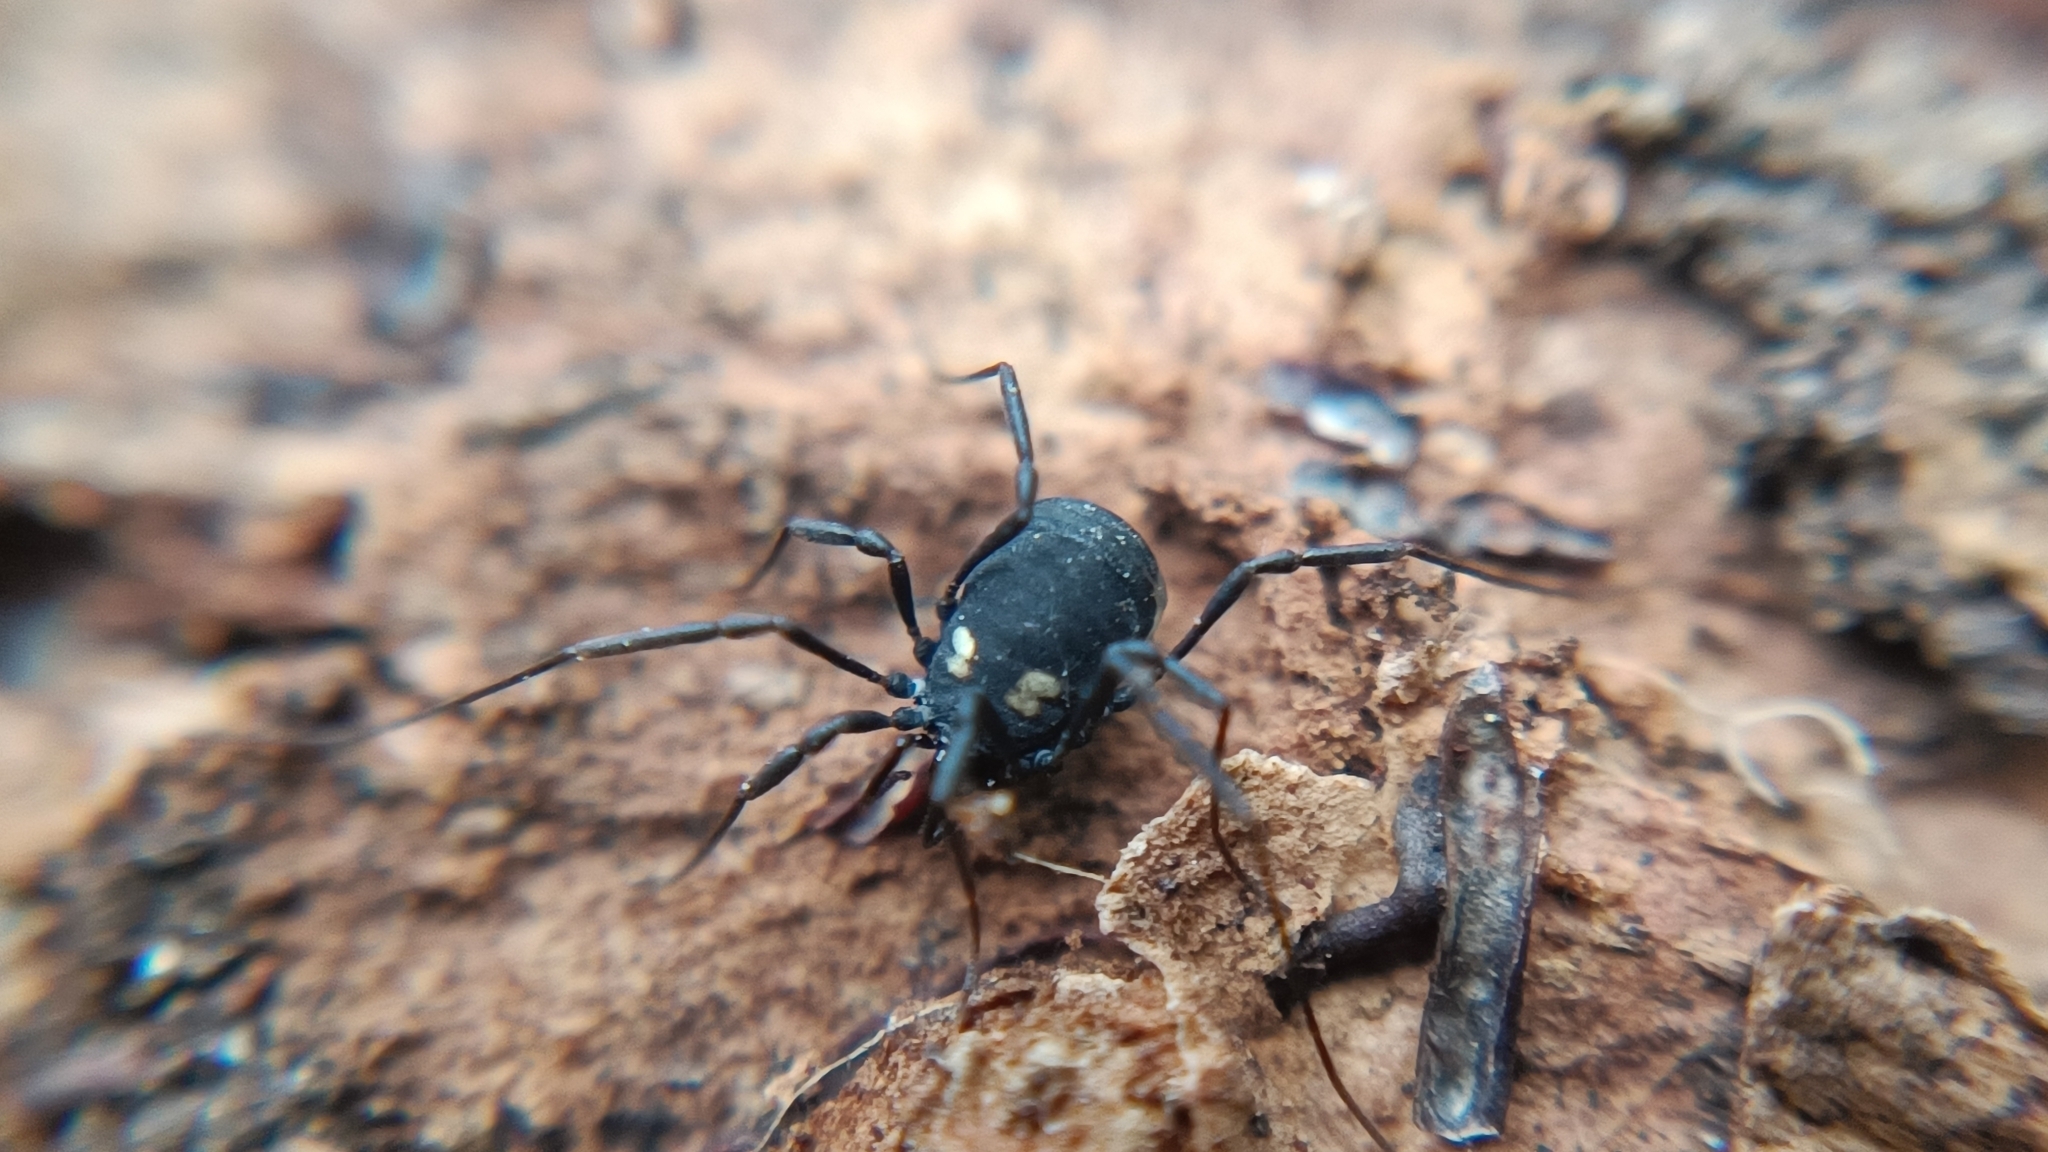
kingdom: Animalia
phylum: Arthropoda
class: Arachnida
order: Opiliones
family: Nemastomatidae
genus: Nemastoma
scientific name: Nemastoma bimaculatum
